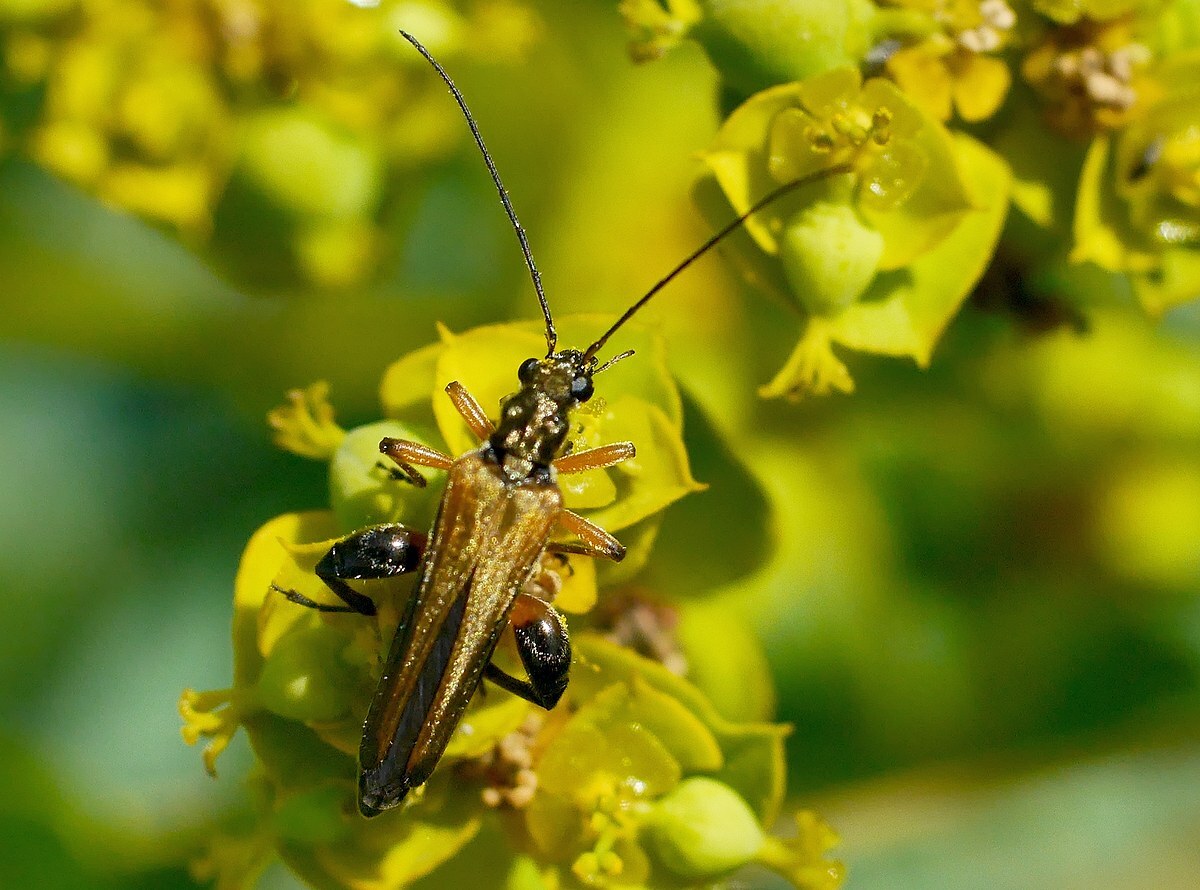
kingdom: Animalia
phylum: Arthropoda
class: Insecta
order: Coleoptera
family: Oedemeridae
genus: Oedemera
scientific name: Oedemera podagrariae
